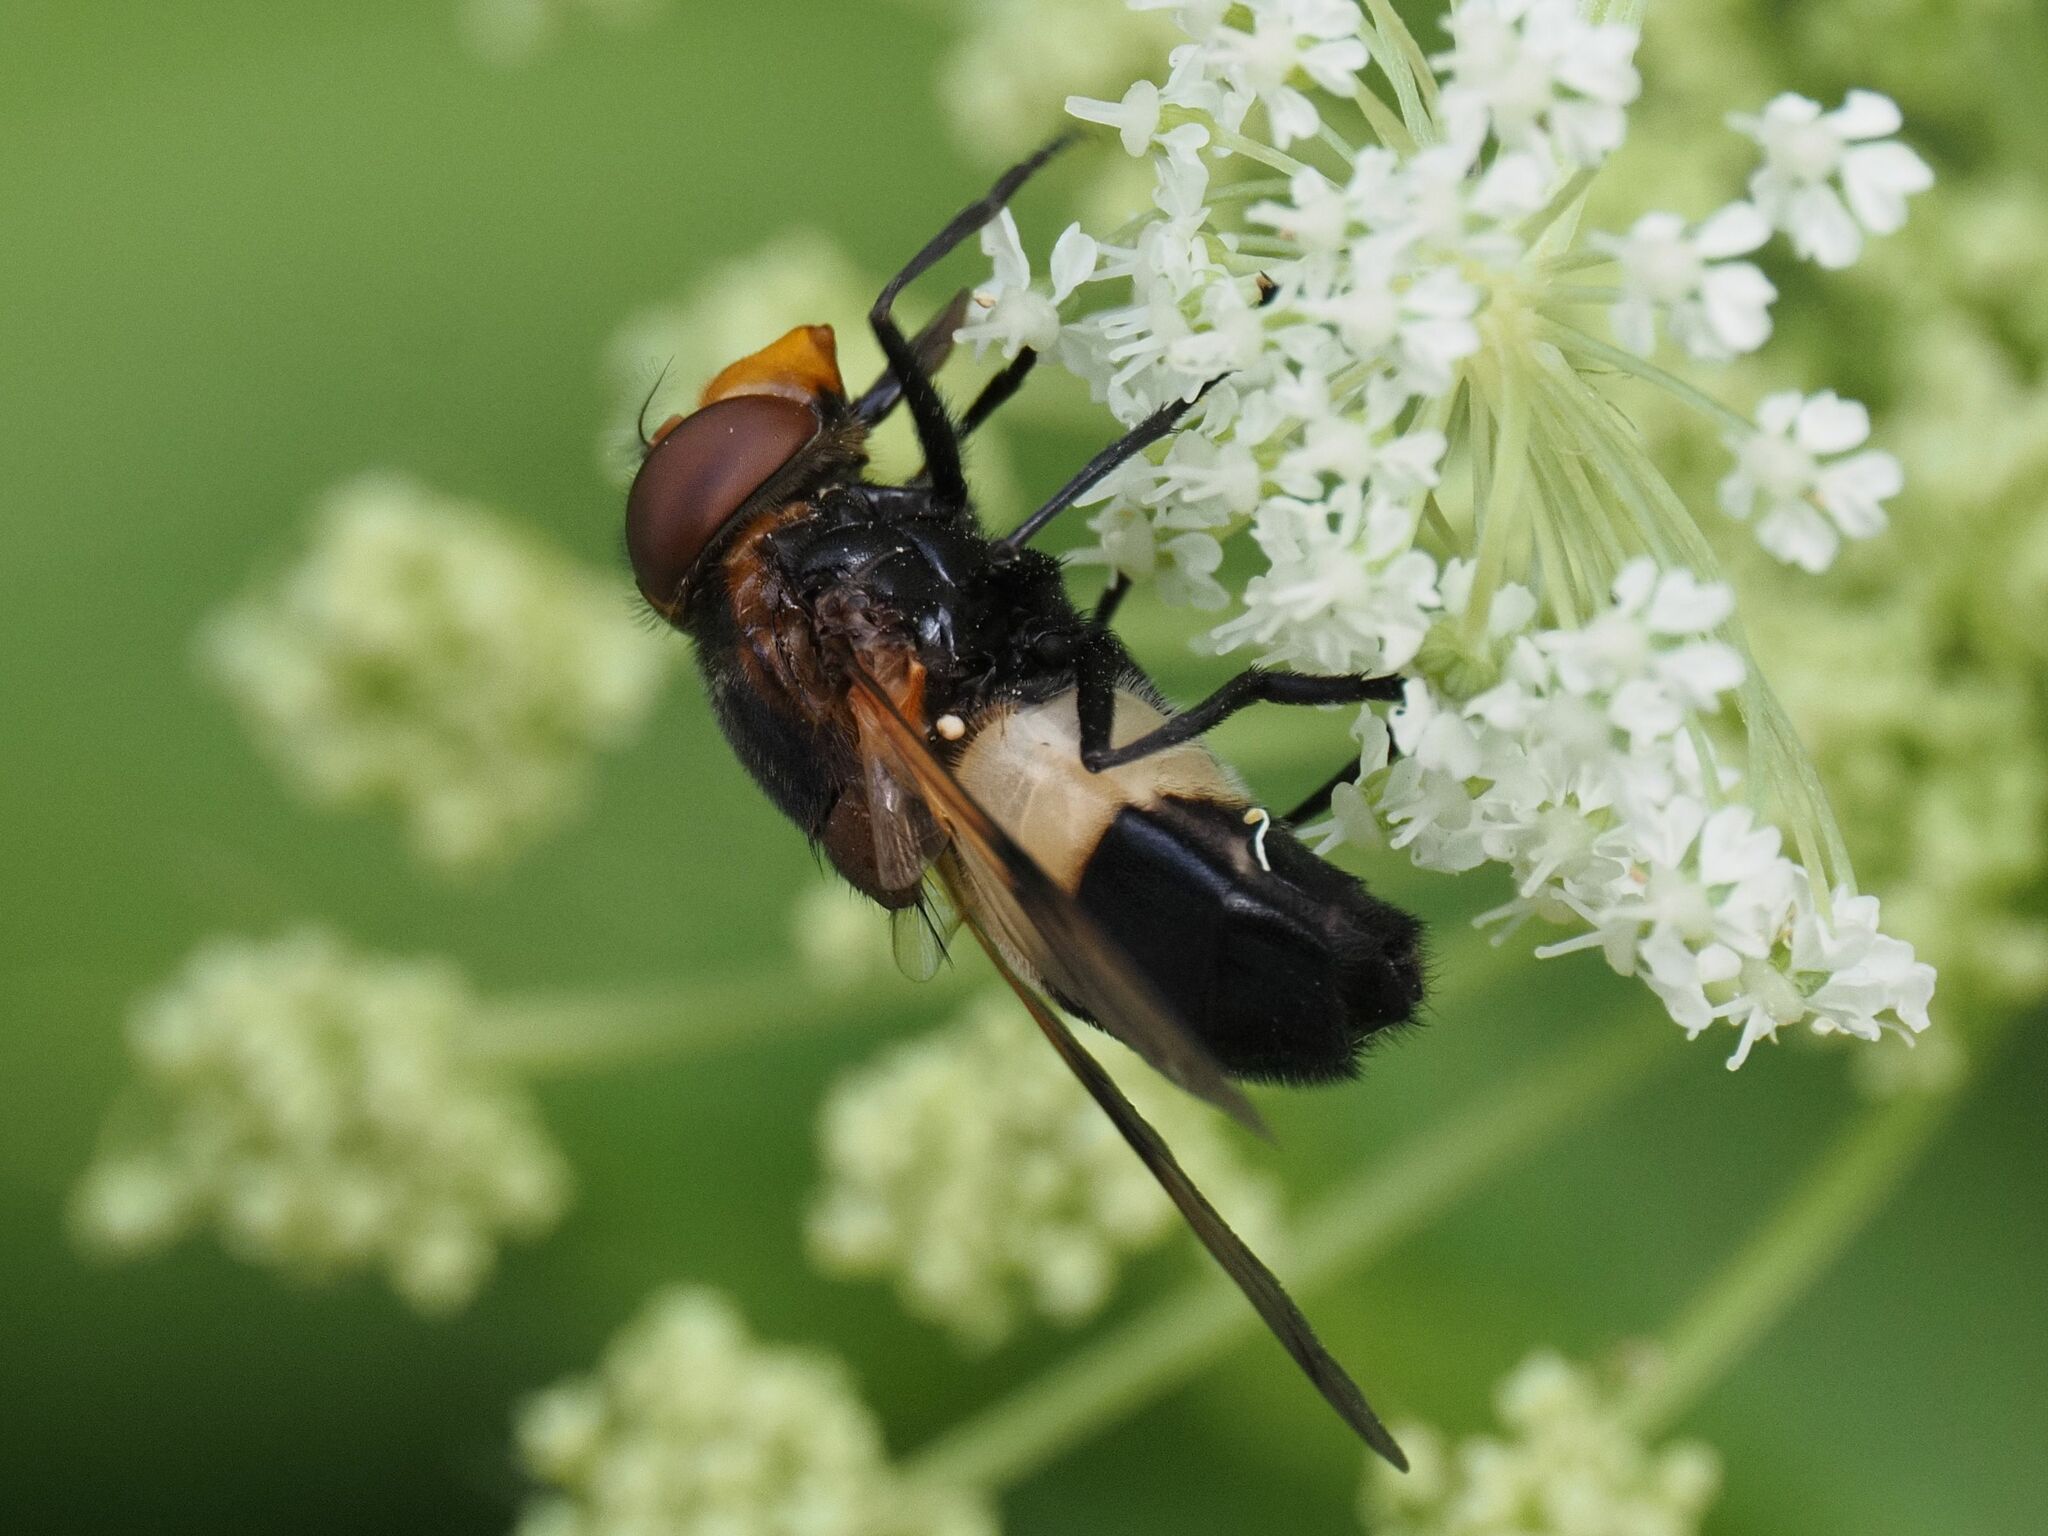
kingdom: Animalia
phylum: Arthropoda
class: Insecta
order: Diptera
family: Syrphidae
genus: Volucella
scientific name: Volucella pellucens
